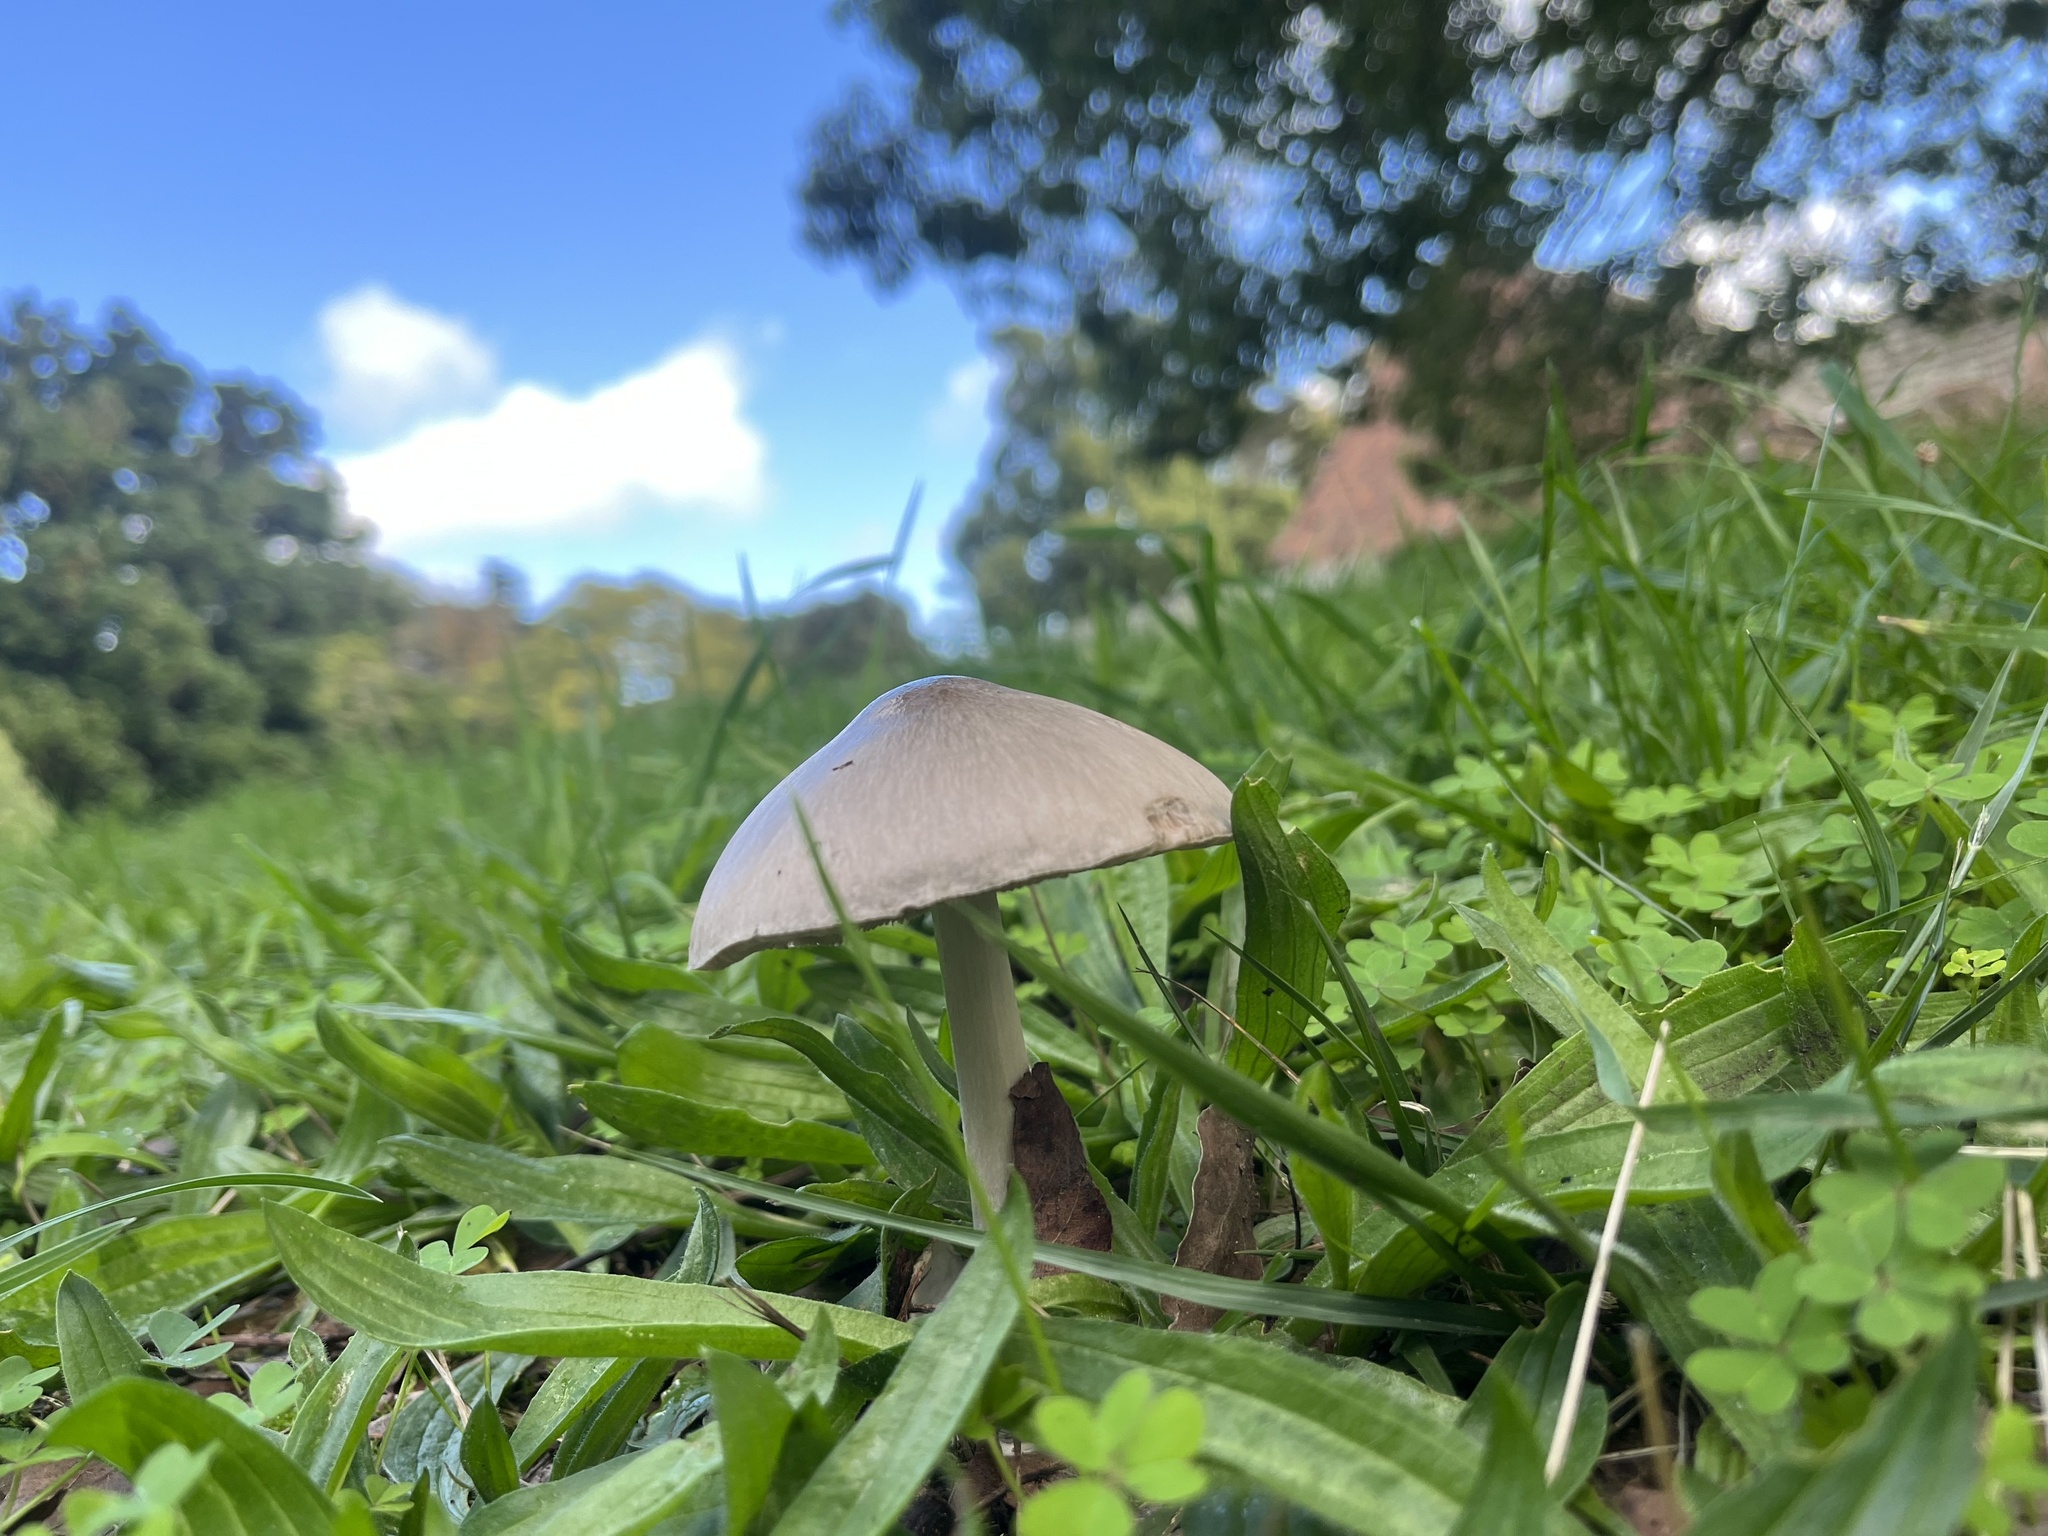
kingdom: Fungi
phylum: Basidiomycota
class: Agaricomycetes
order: Agaricales
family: Pluteaceae
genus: Volvopluteus
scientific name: Volvopluteus gloiocephalus
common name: Stubble rosegill
